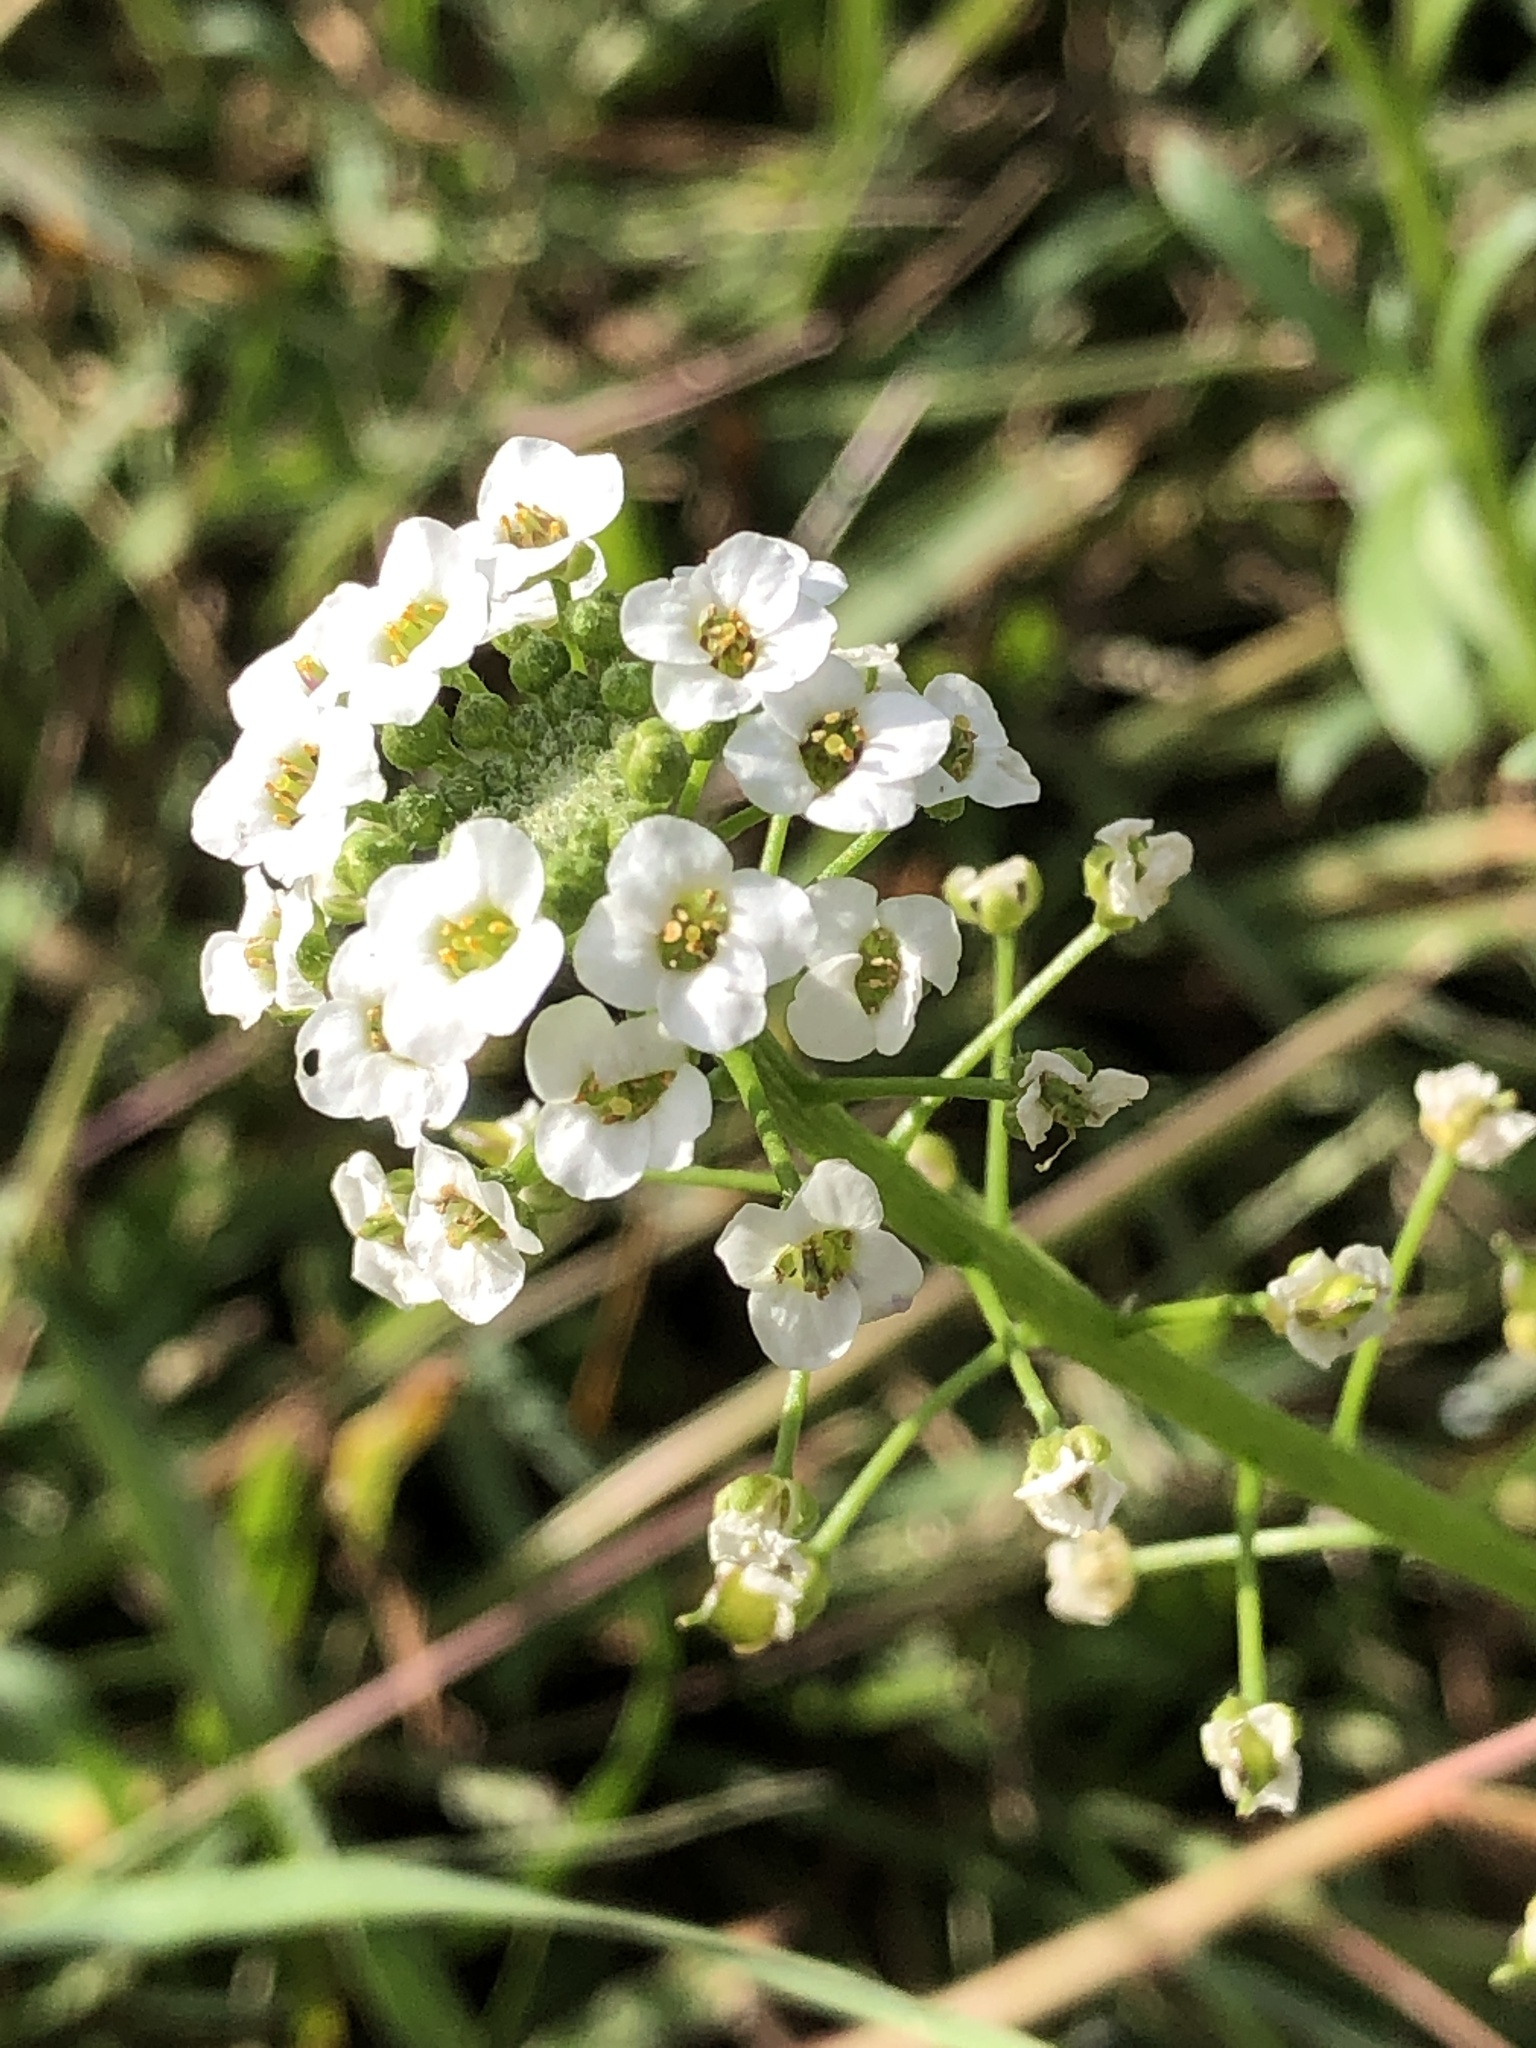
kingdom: Plantae
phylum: Tracheophyta
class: Magnoliopsida
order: Brassicales
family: Brassicaceae
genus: Lobularia
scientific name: Lobularia maritima
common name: Sweet alison
